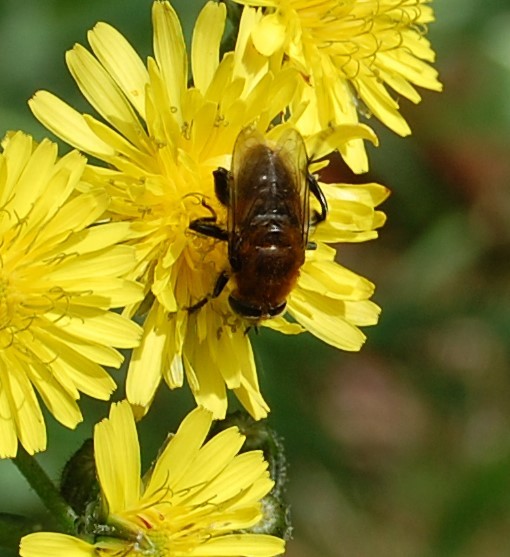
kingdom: Animalia
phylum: Arthropoda
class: Insecta
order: Diptera
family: Syrphidae
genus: Merodon
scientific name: Merodon equestris
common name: Greater bulb-fly
